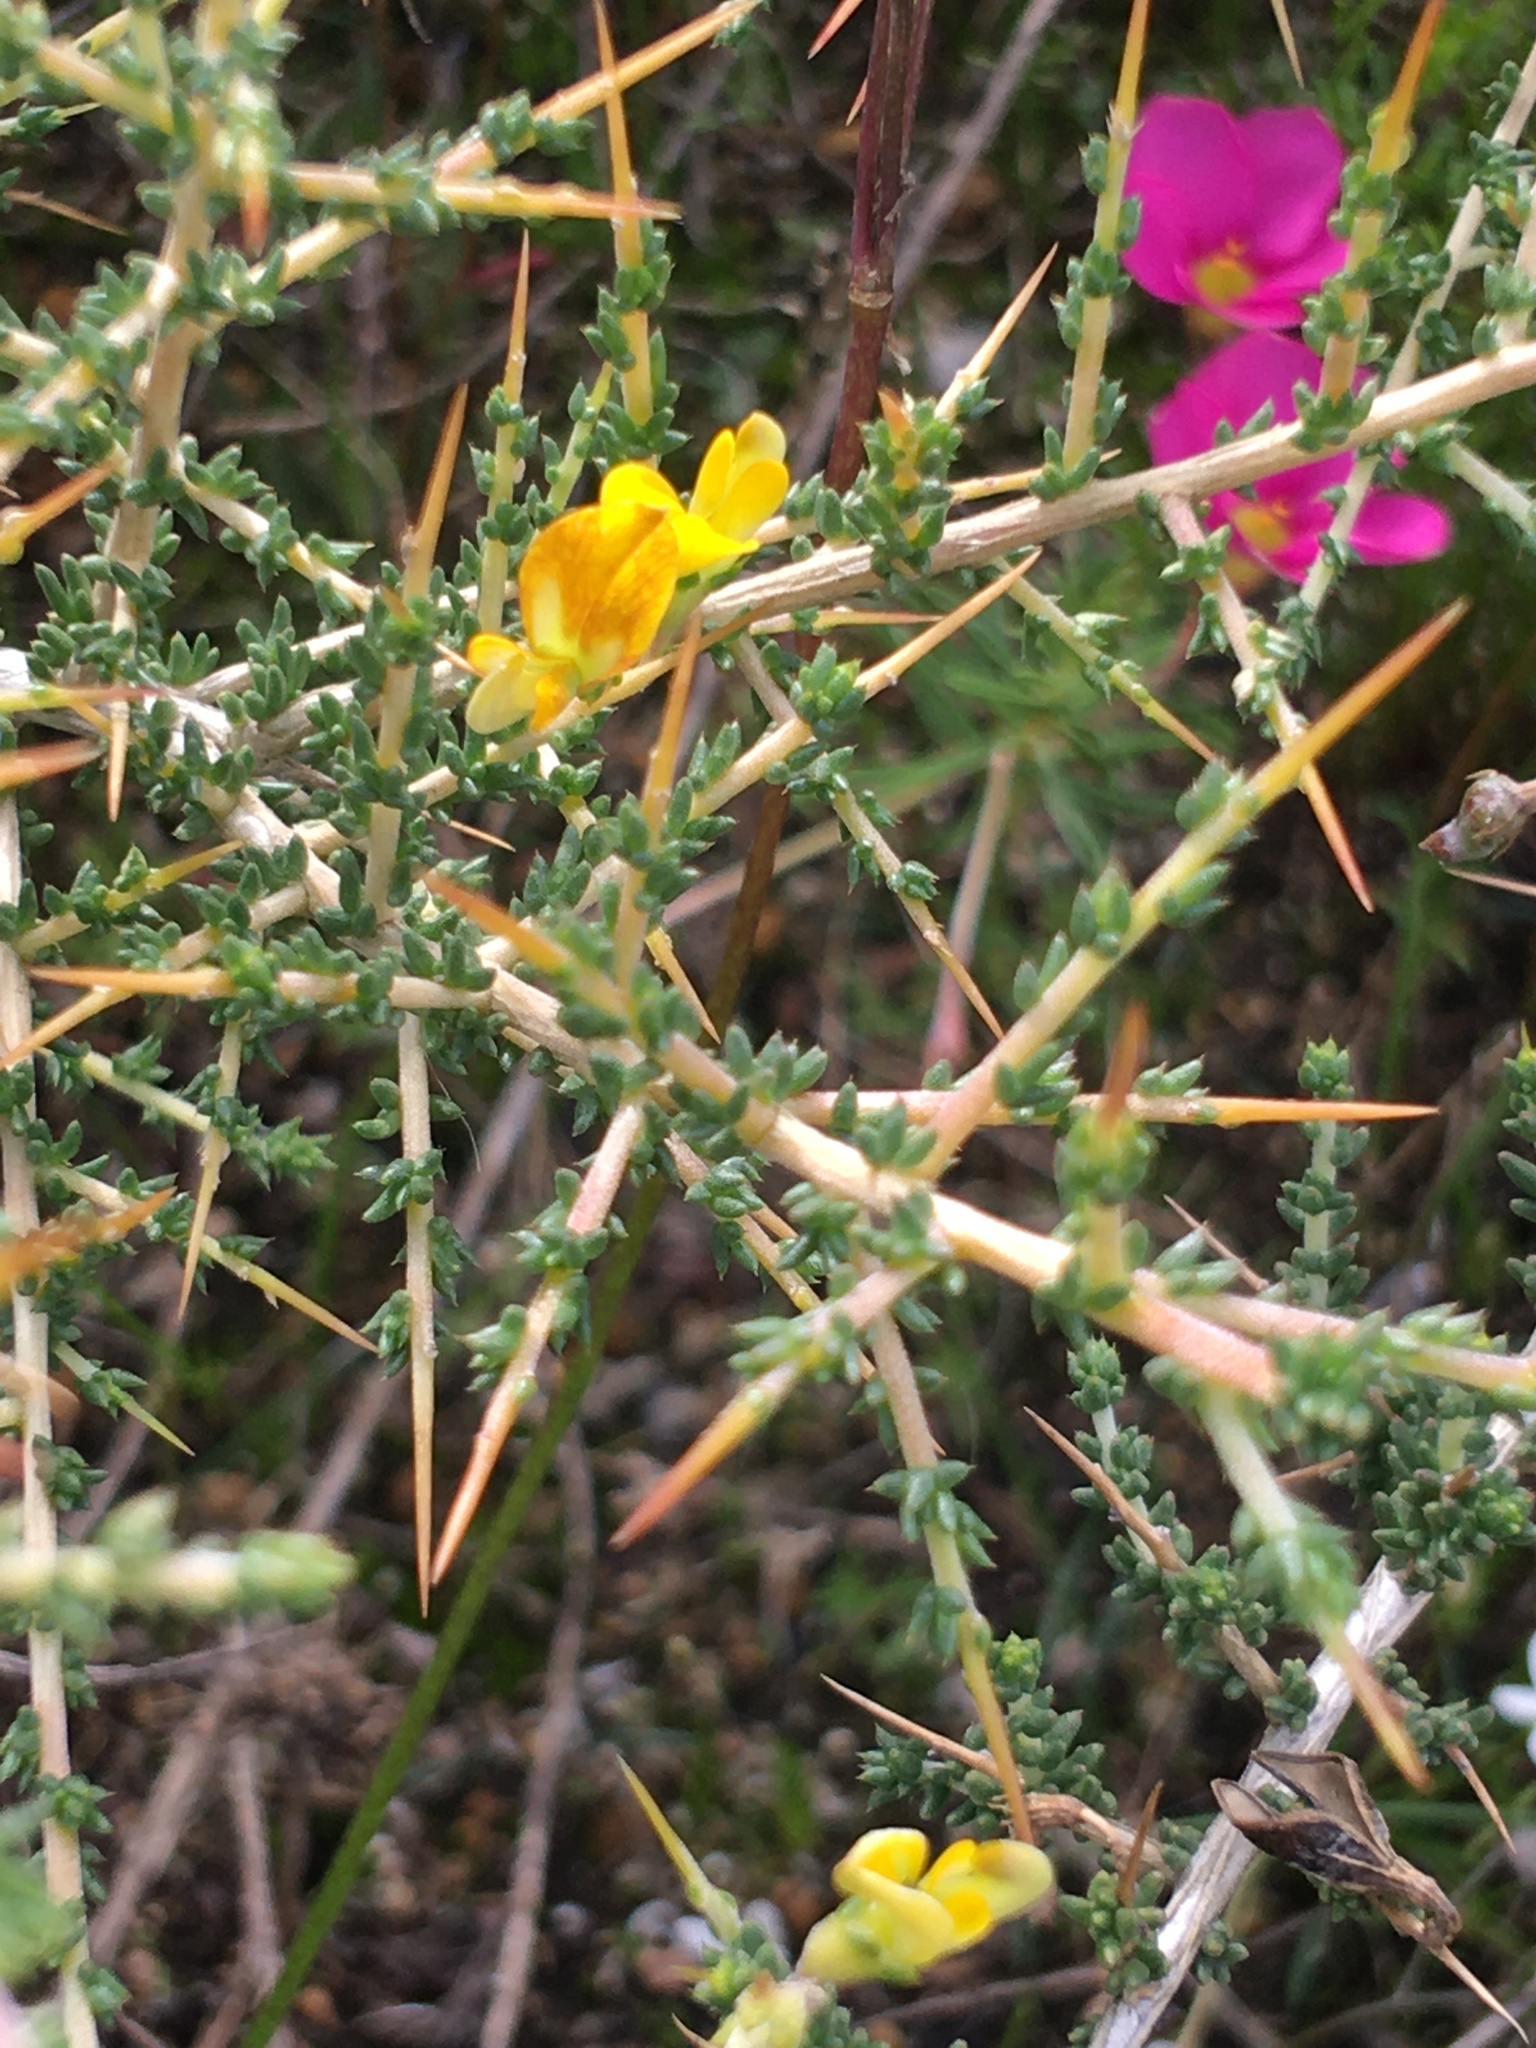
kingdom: Plantae
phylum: Tracheophyta
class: Magnoliopsida
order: Fabales
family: Fabaceae
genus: Aspalathus
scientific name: Aspalathus acuminata
